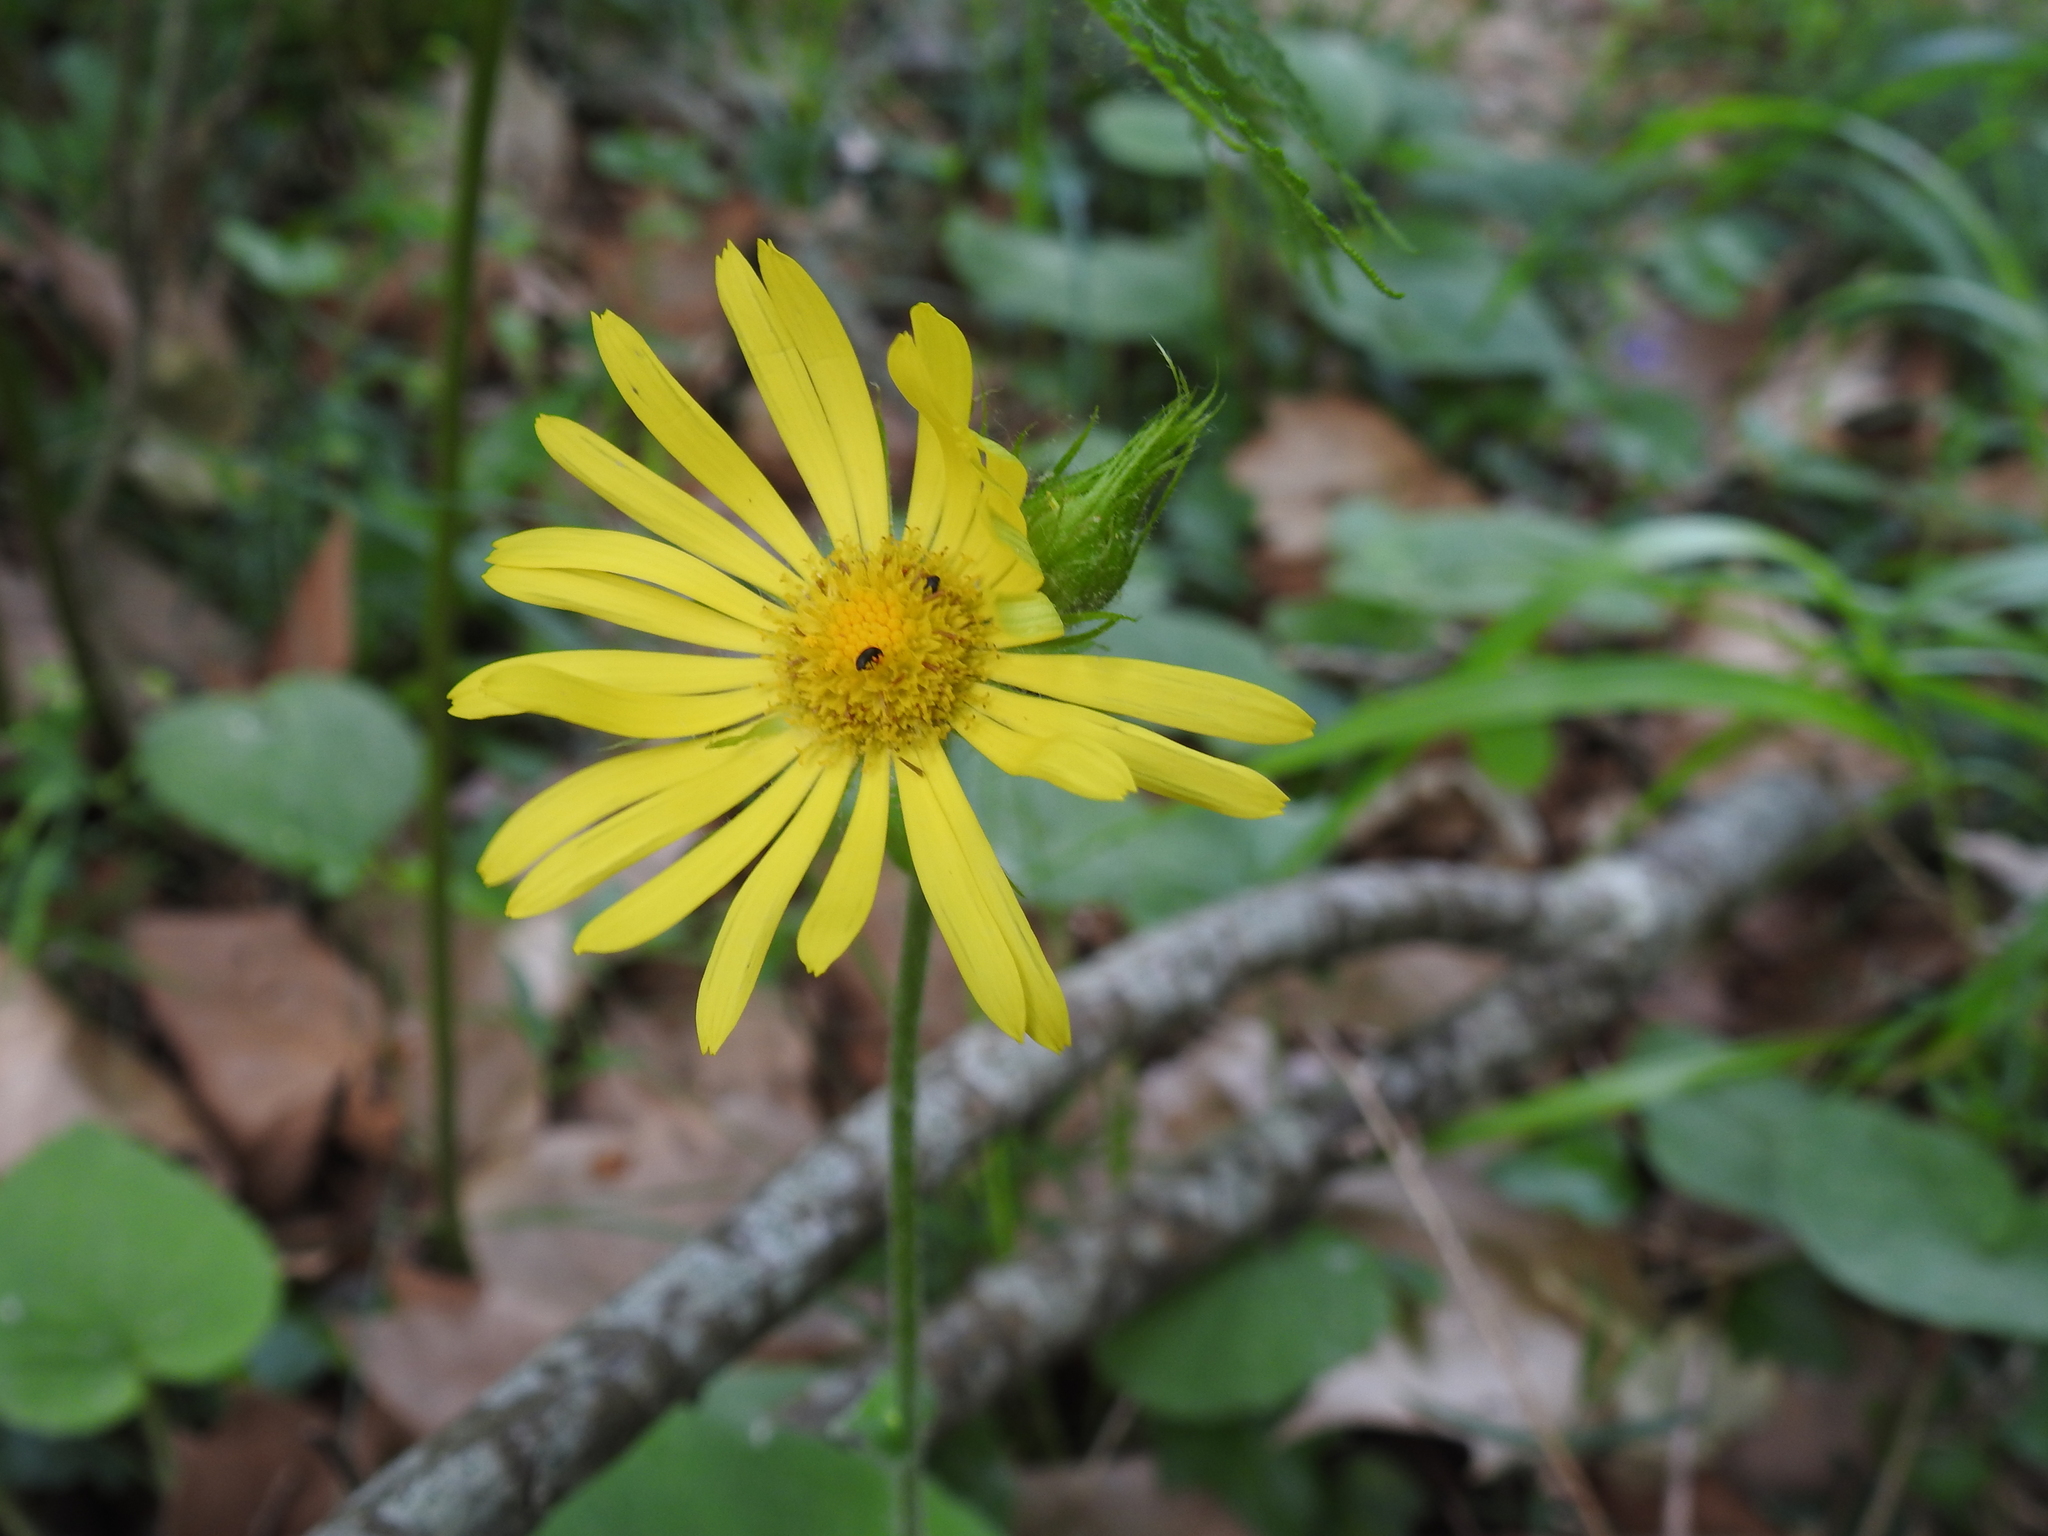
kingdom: Plantae
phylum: Tracheophyta
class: Magnoliopsida
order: Asterales
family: Asteraceae
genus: Doronicum
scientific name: Doronicum pardalianches
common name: Leopard's-bane
